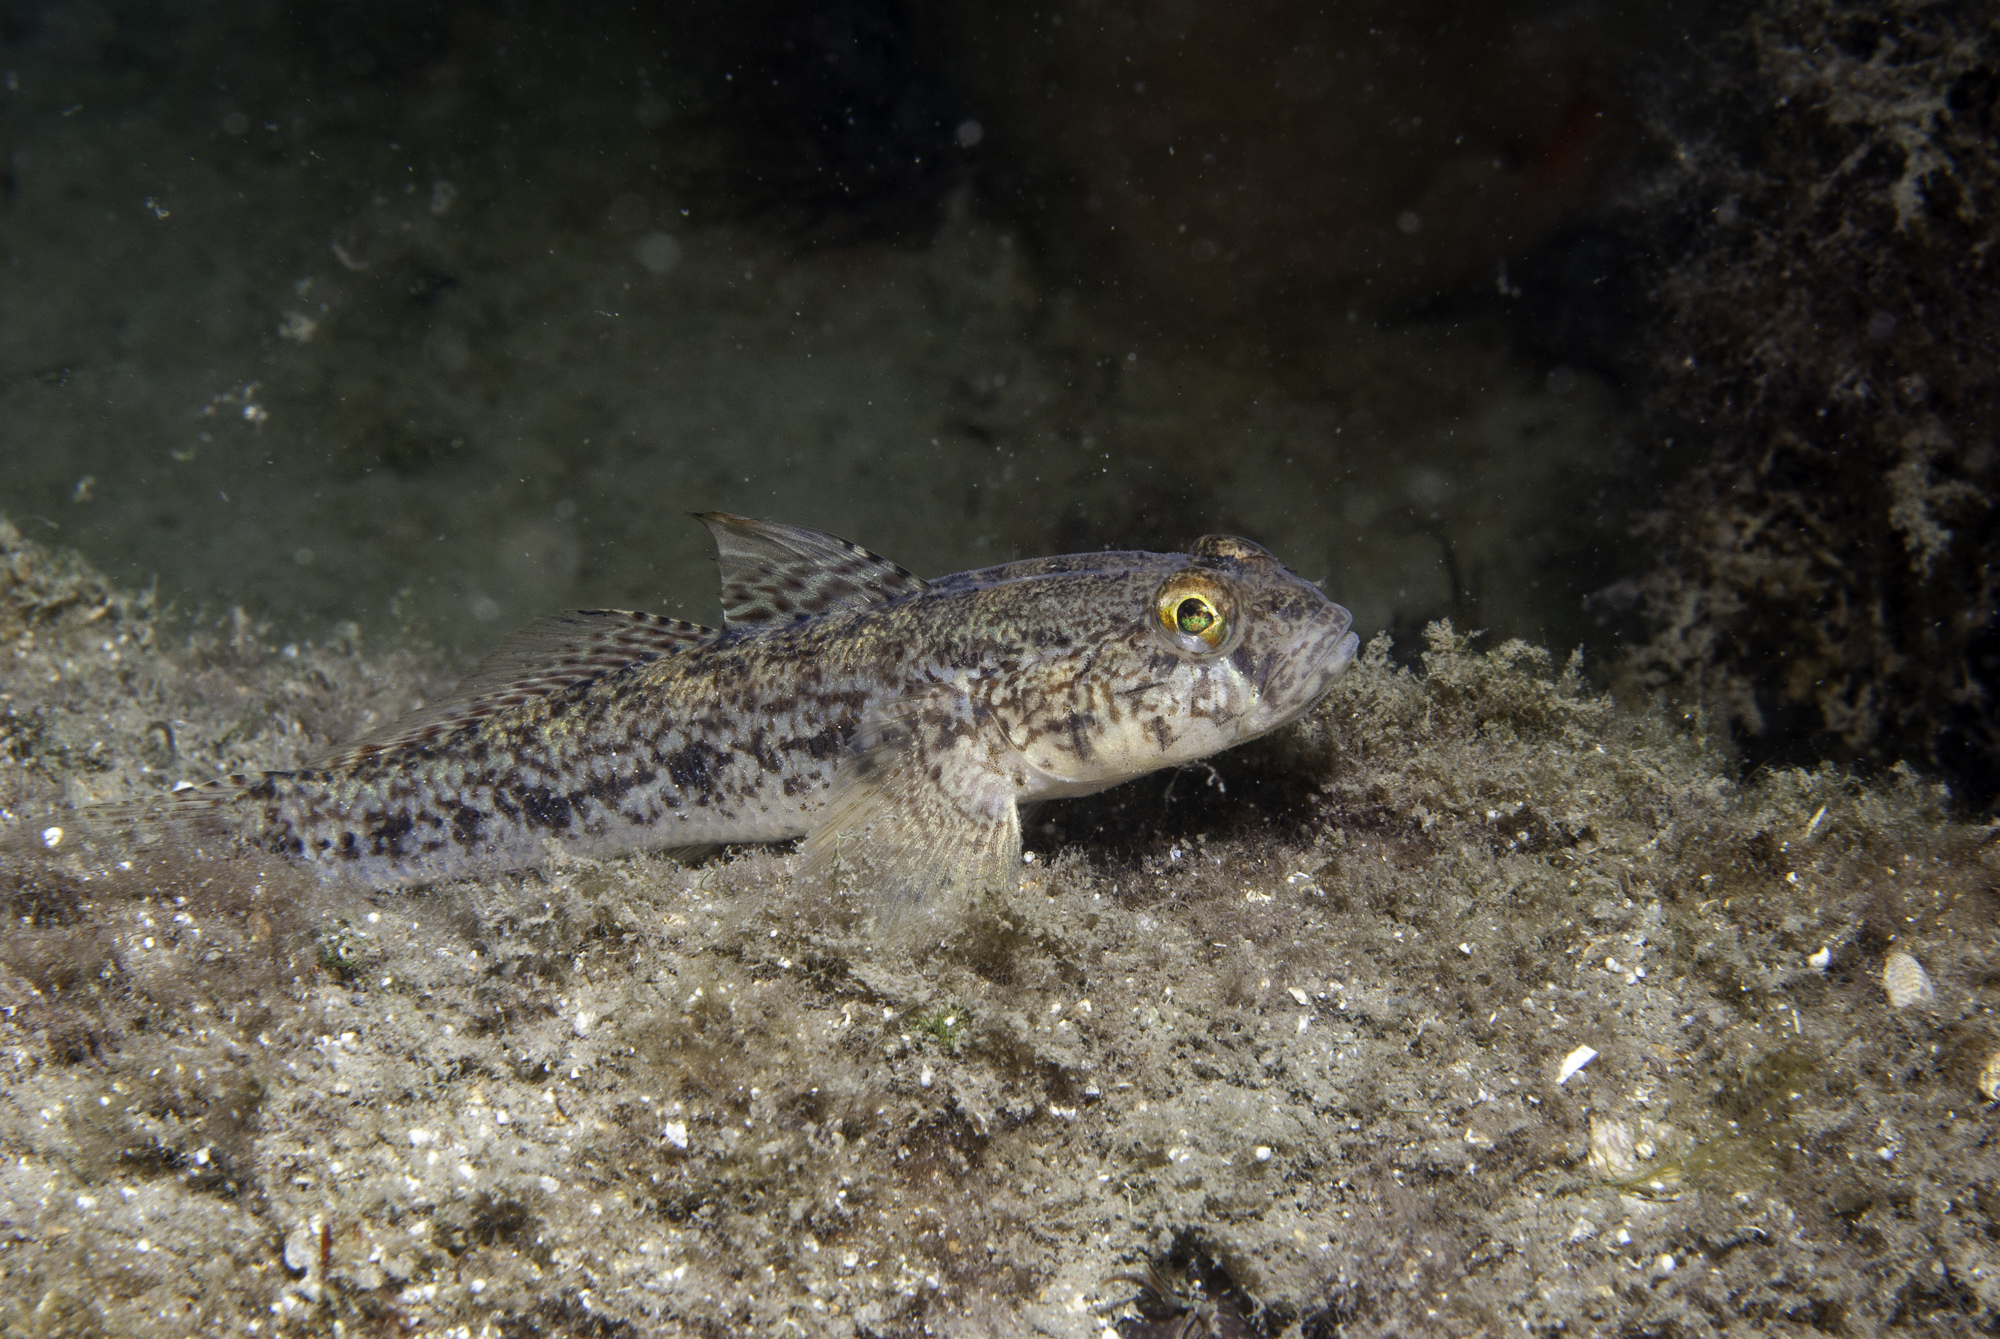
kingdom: Animalia
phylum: Chordata
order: Perciformes
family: Gobiidae
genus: Gobius
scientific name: Gobius niger
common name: Black goby
